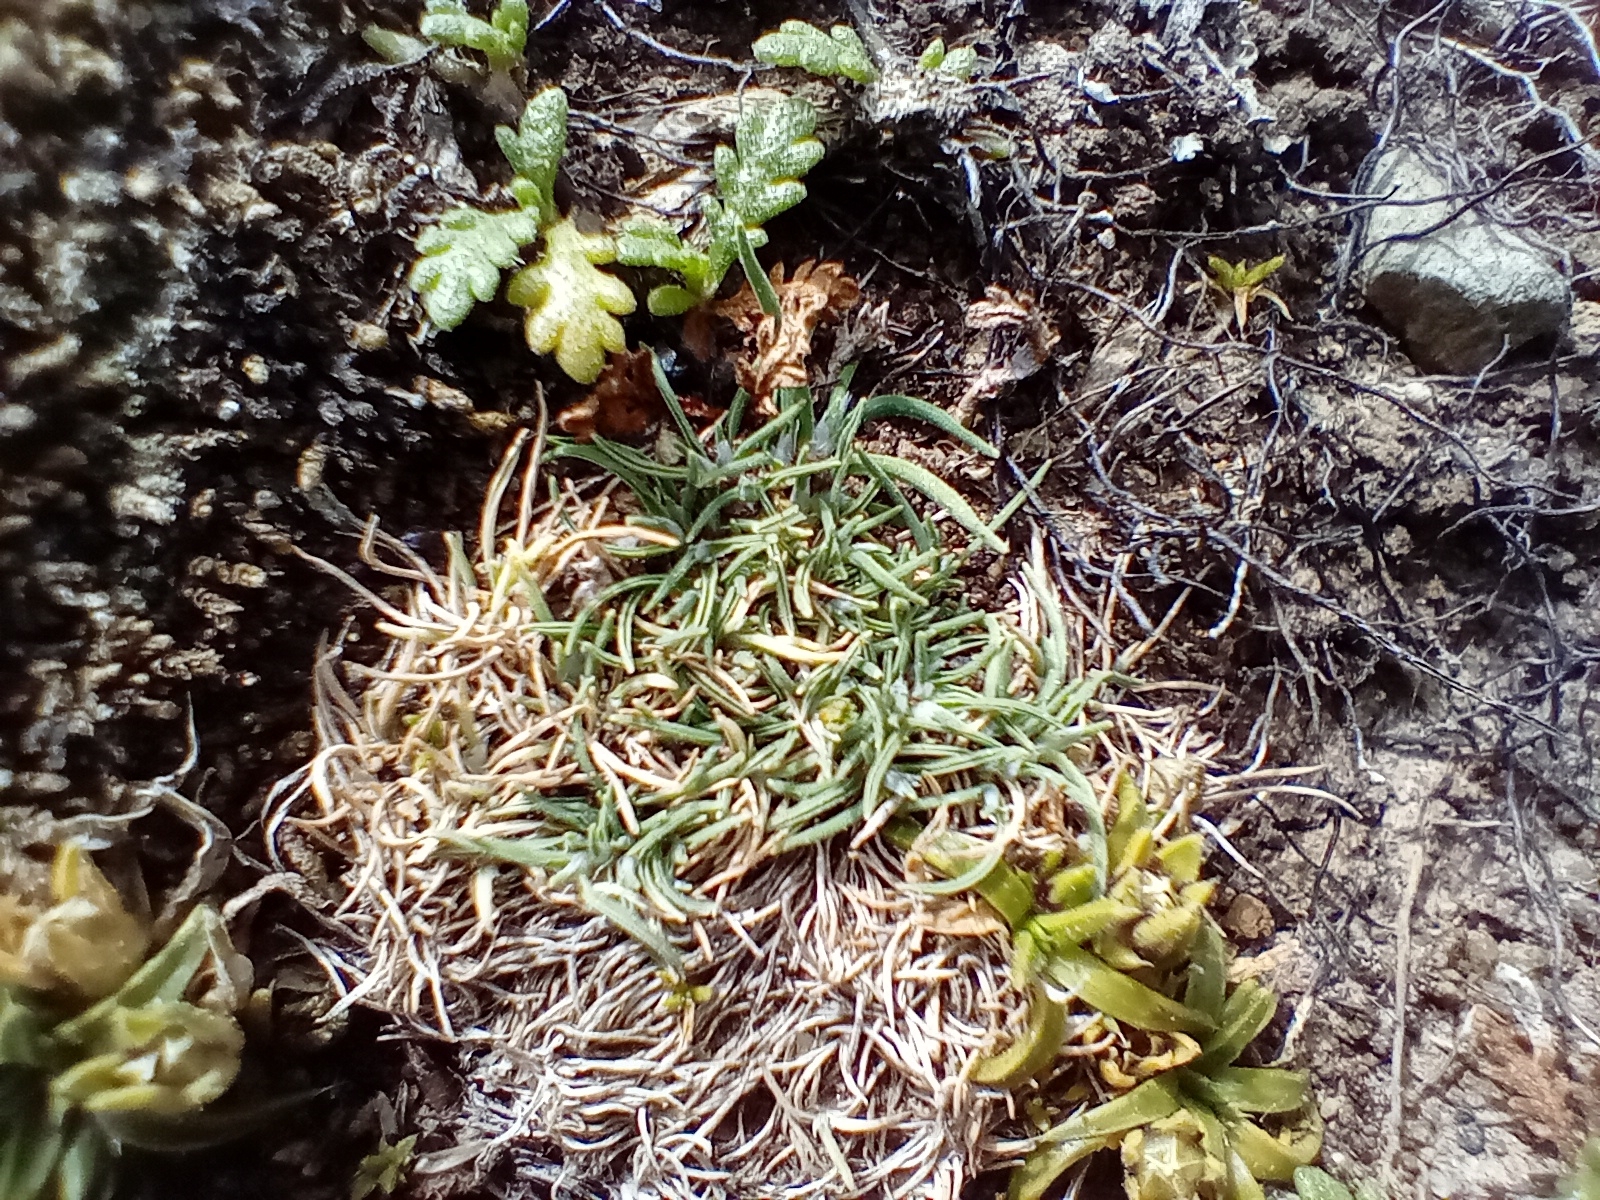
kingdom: Plantae
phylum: Tracheophyta
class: Liliopsida
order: Poales
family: Poaceae
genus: Agrostis
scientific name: Agrostis muscosa
